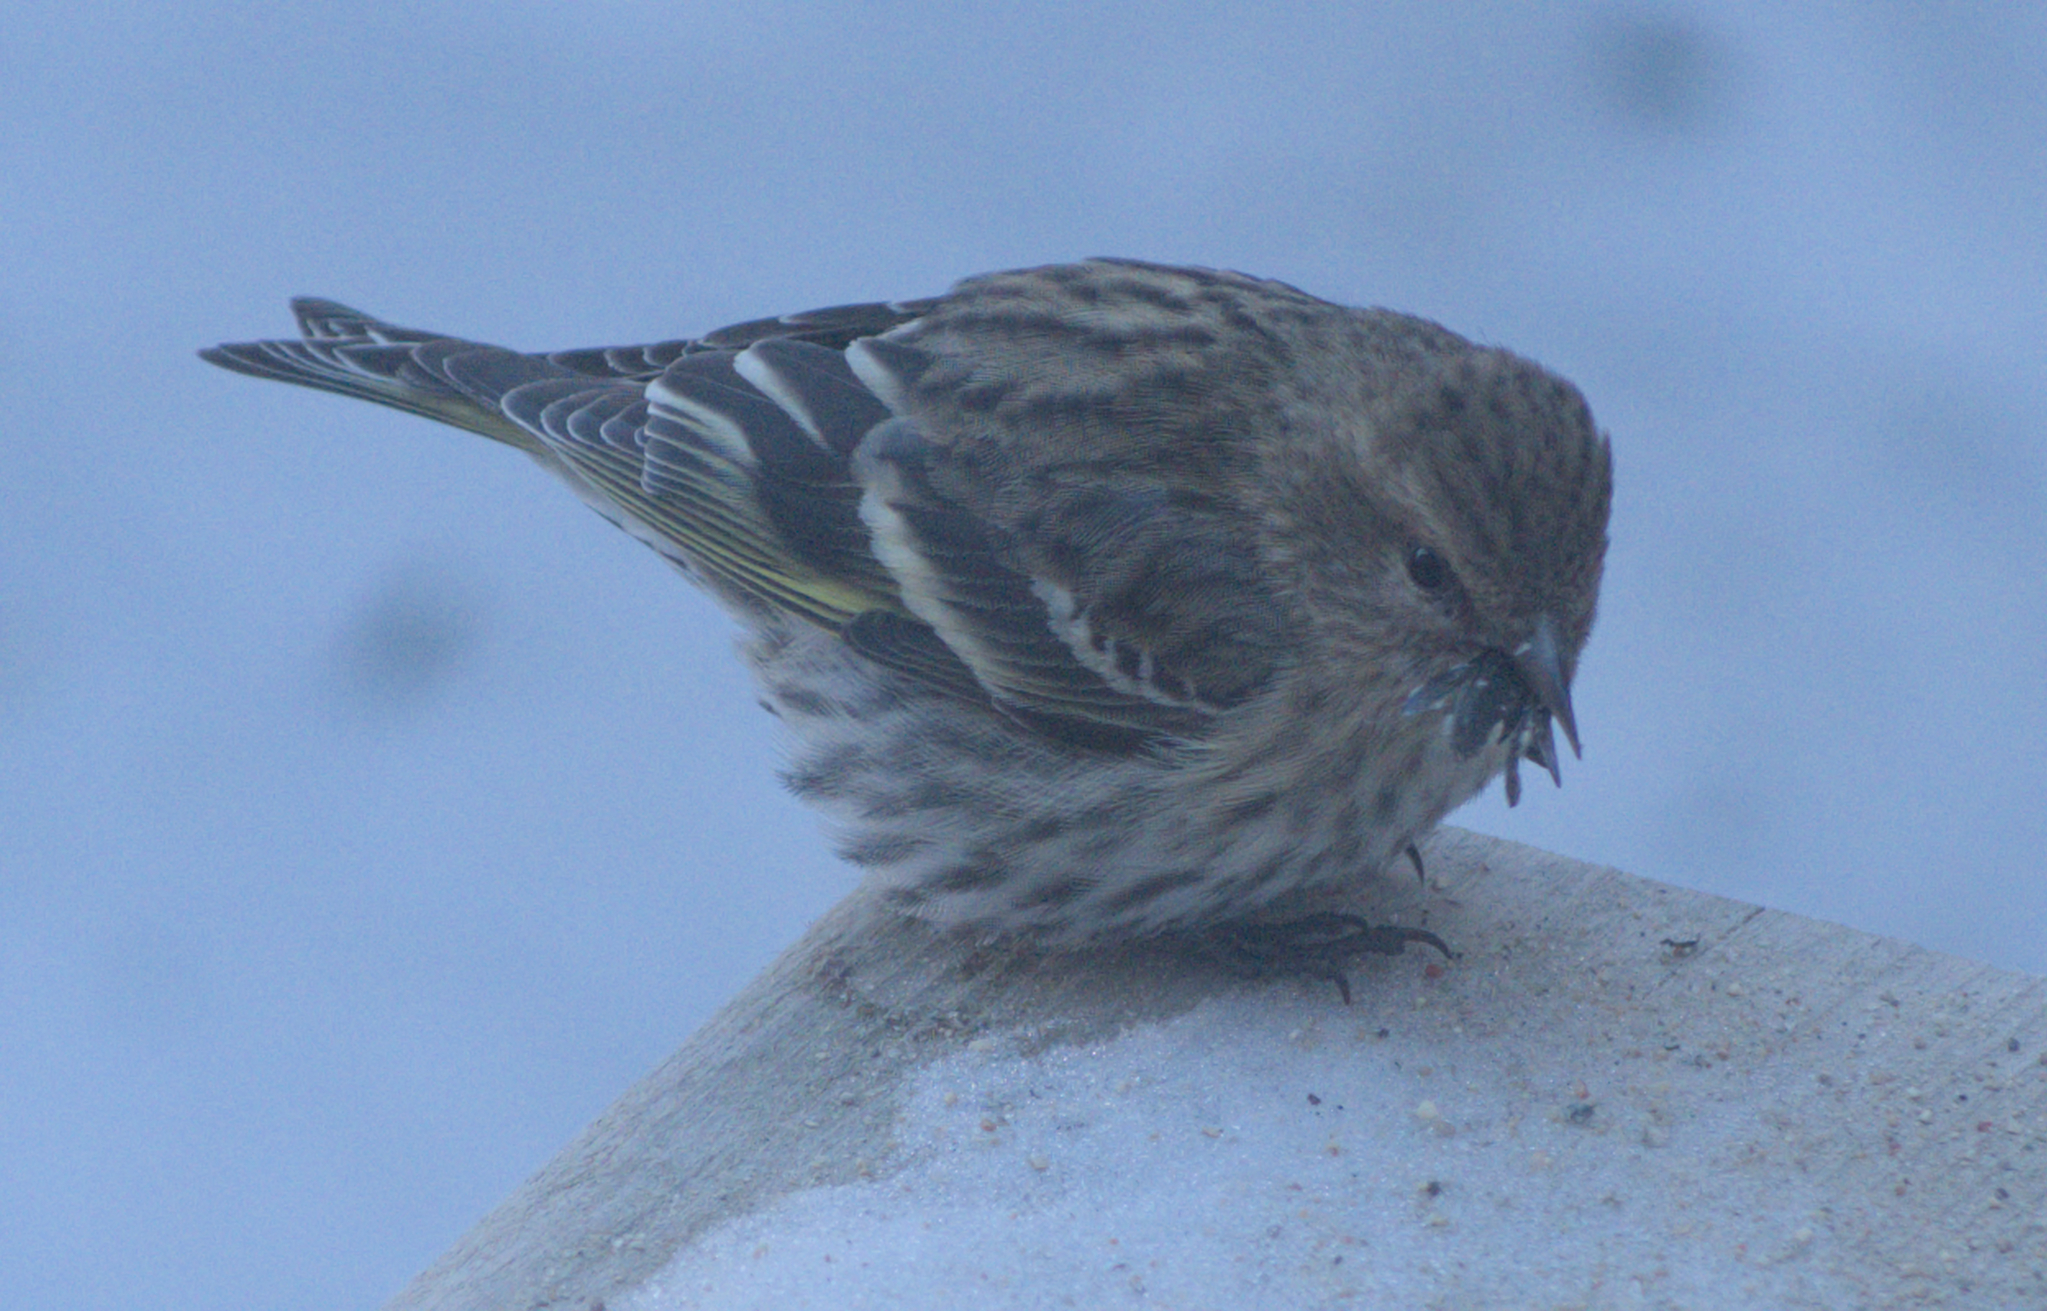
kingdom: Animalia
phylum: Chordata
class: Aves
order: Passeriformes
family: Fringillidae
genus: Spinus
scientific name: Spinus pinus
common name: Pine siskin
